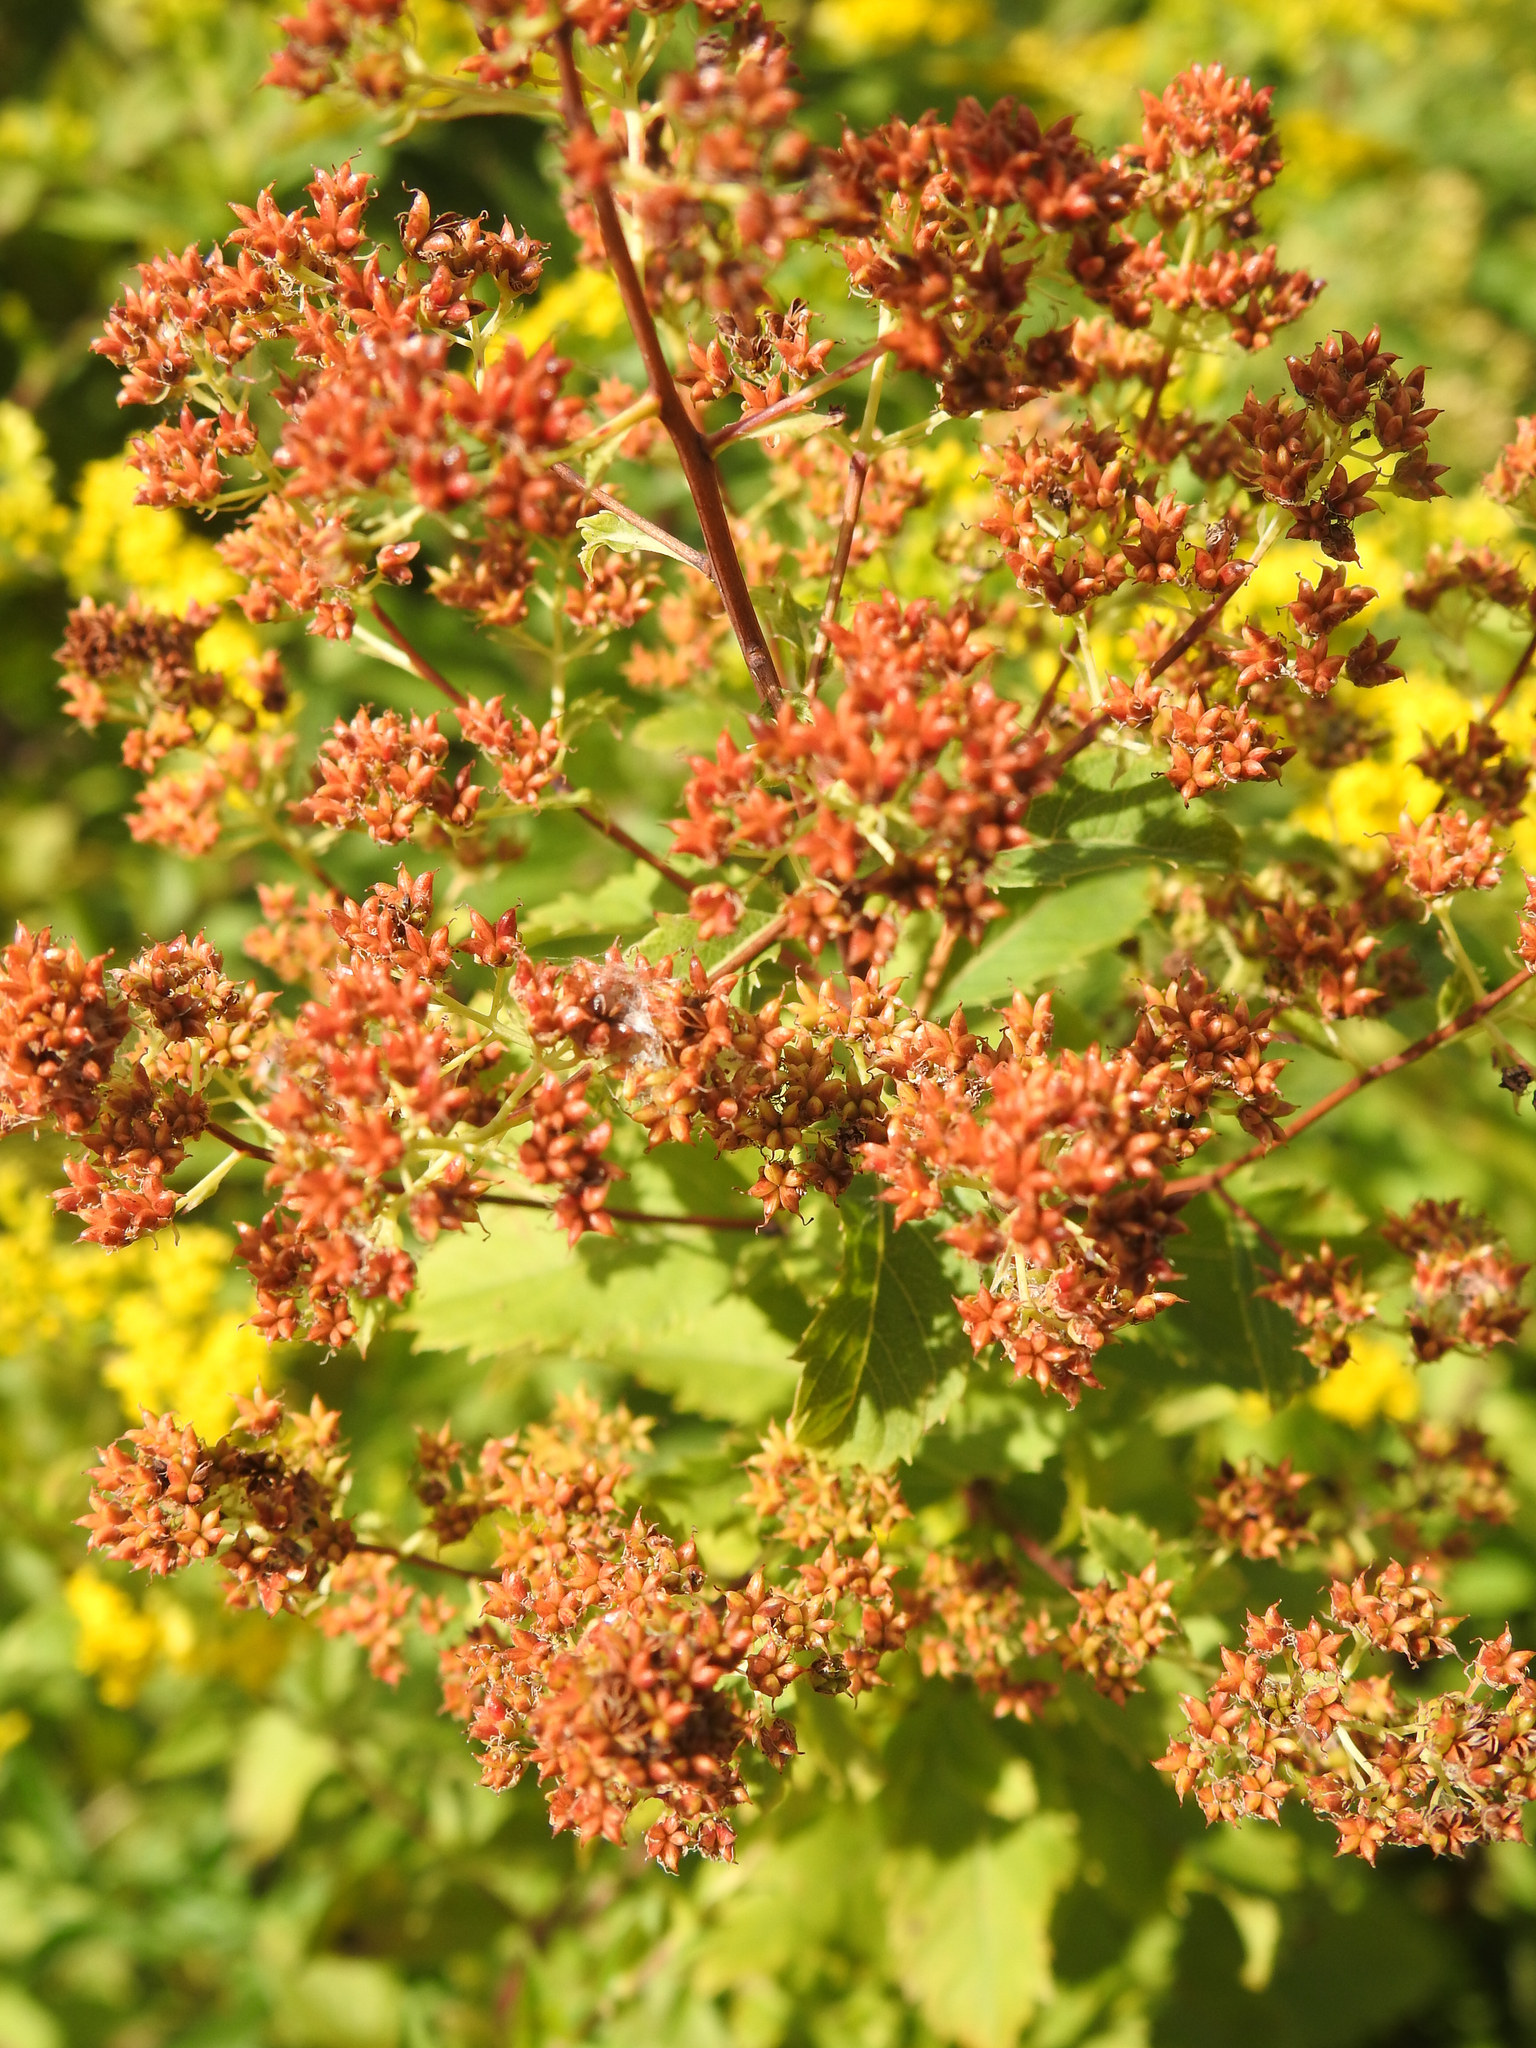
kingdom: Plantae
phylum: Tracheophyta
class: Magnoliopsida
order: Rosales
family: Rosaceae
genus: Spiraea
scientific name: Spiraea alba
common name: Pale bridewort
